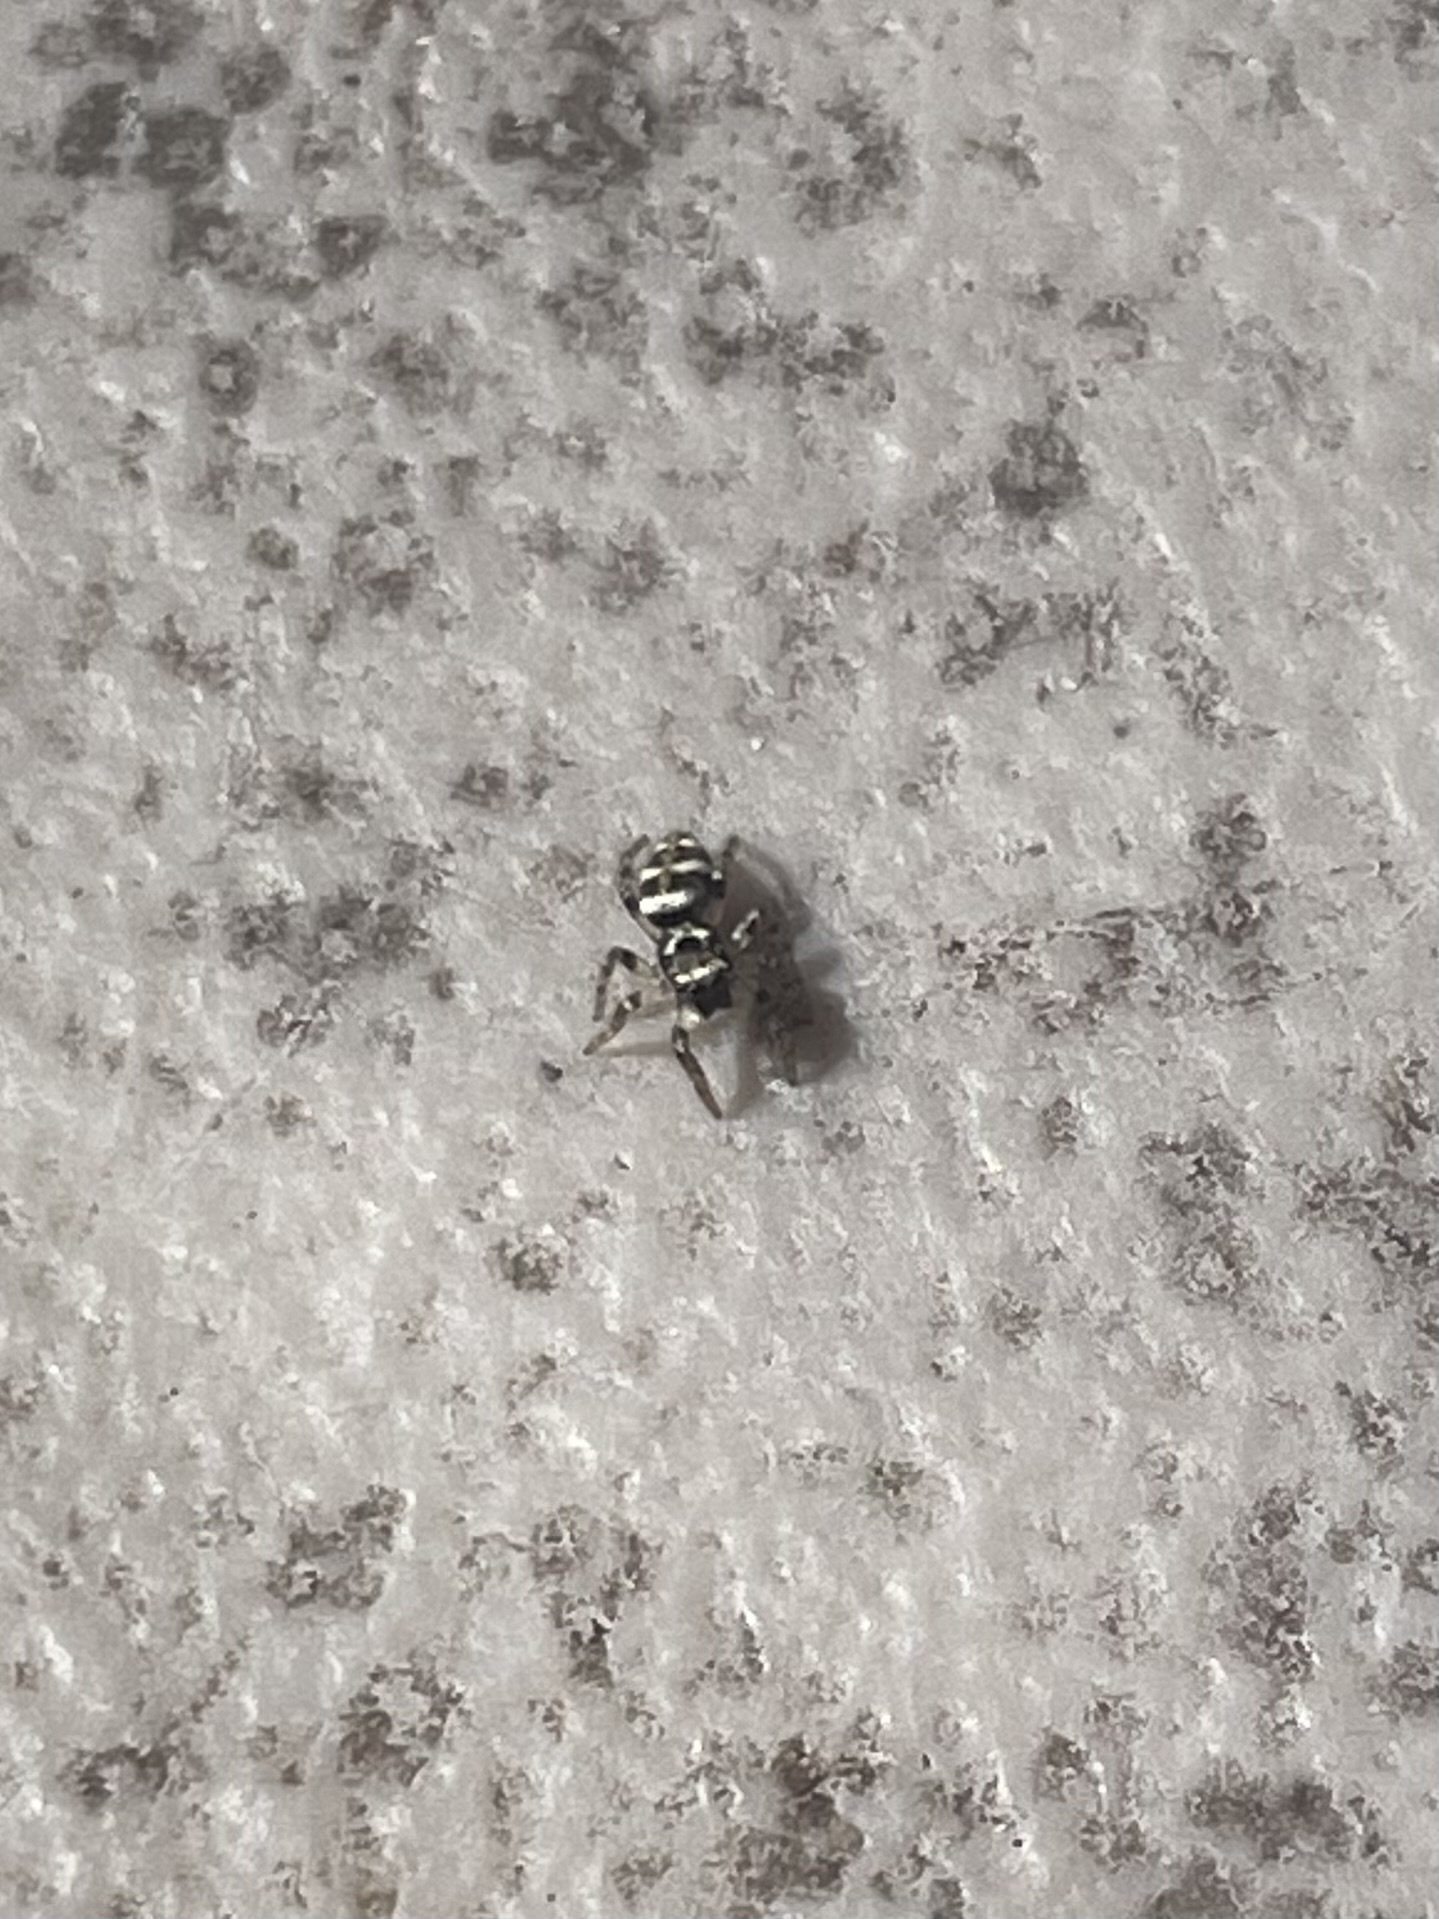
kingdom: Animalia
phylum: Arthropoda
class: Arachnida
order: Araneae
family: Salticidae
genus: Salticus
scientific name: Salticus scenicus
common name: Zebra jumper
